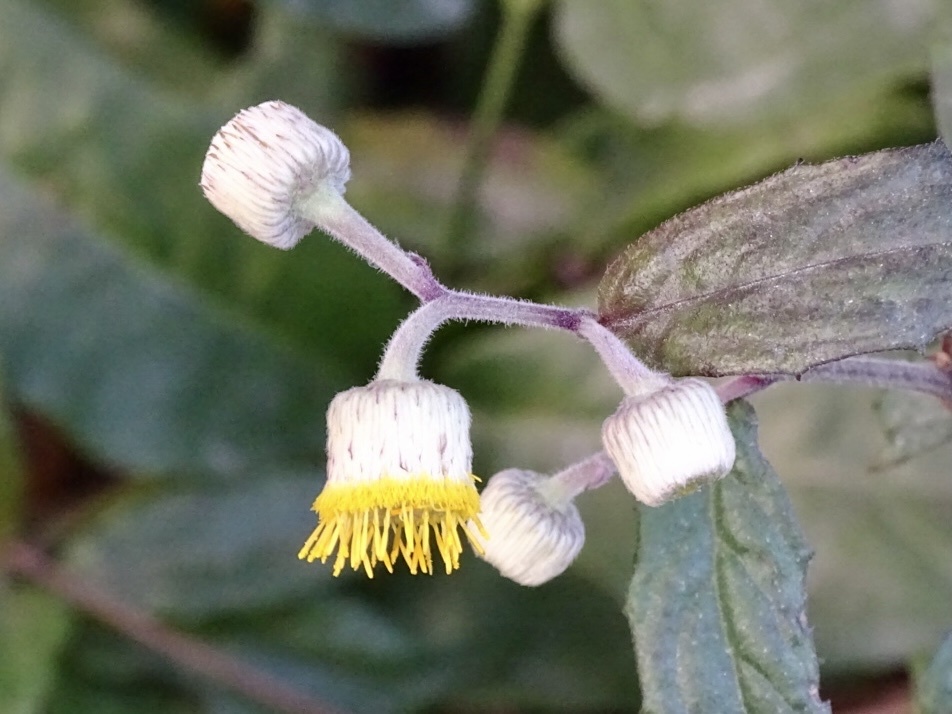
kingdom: Plantae
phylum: Tracheophyta
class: Magnoliopsida
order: Asterales
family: Asteraceae
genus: Blumea
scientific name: Blumea megacephala
